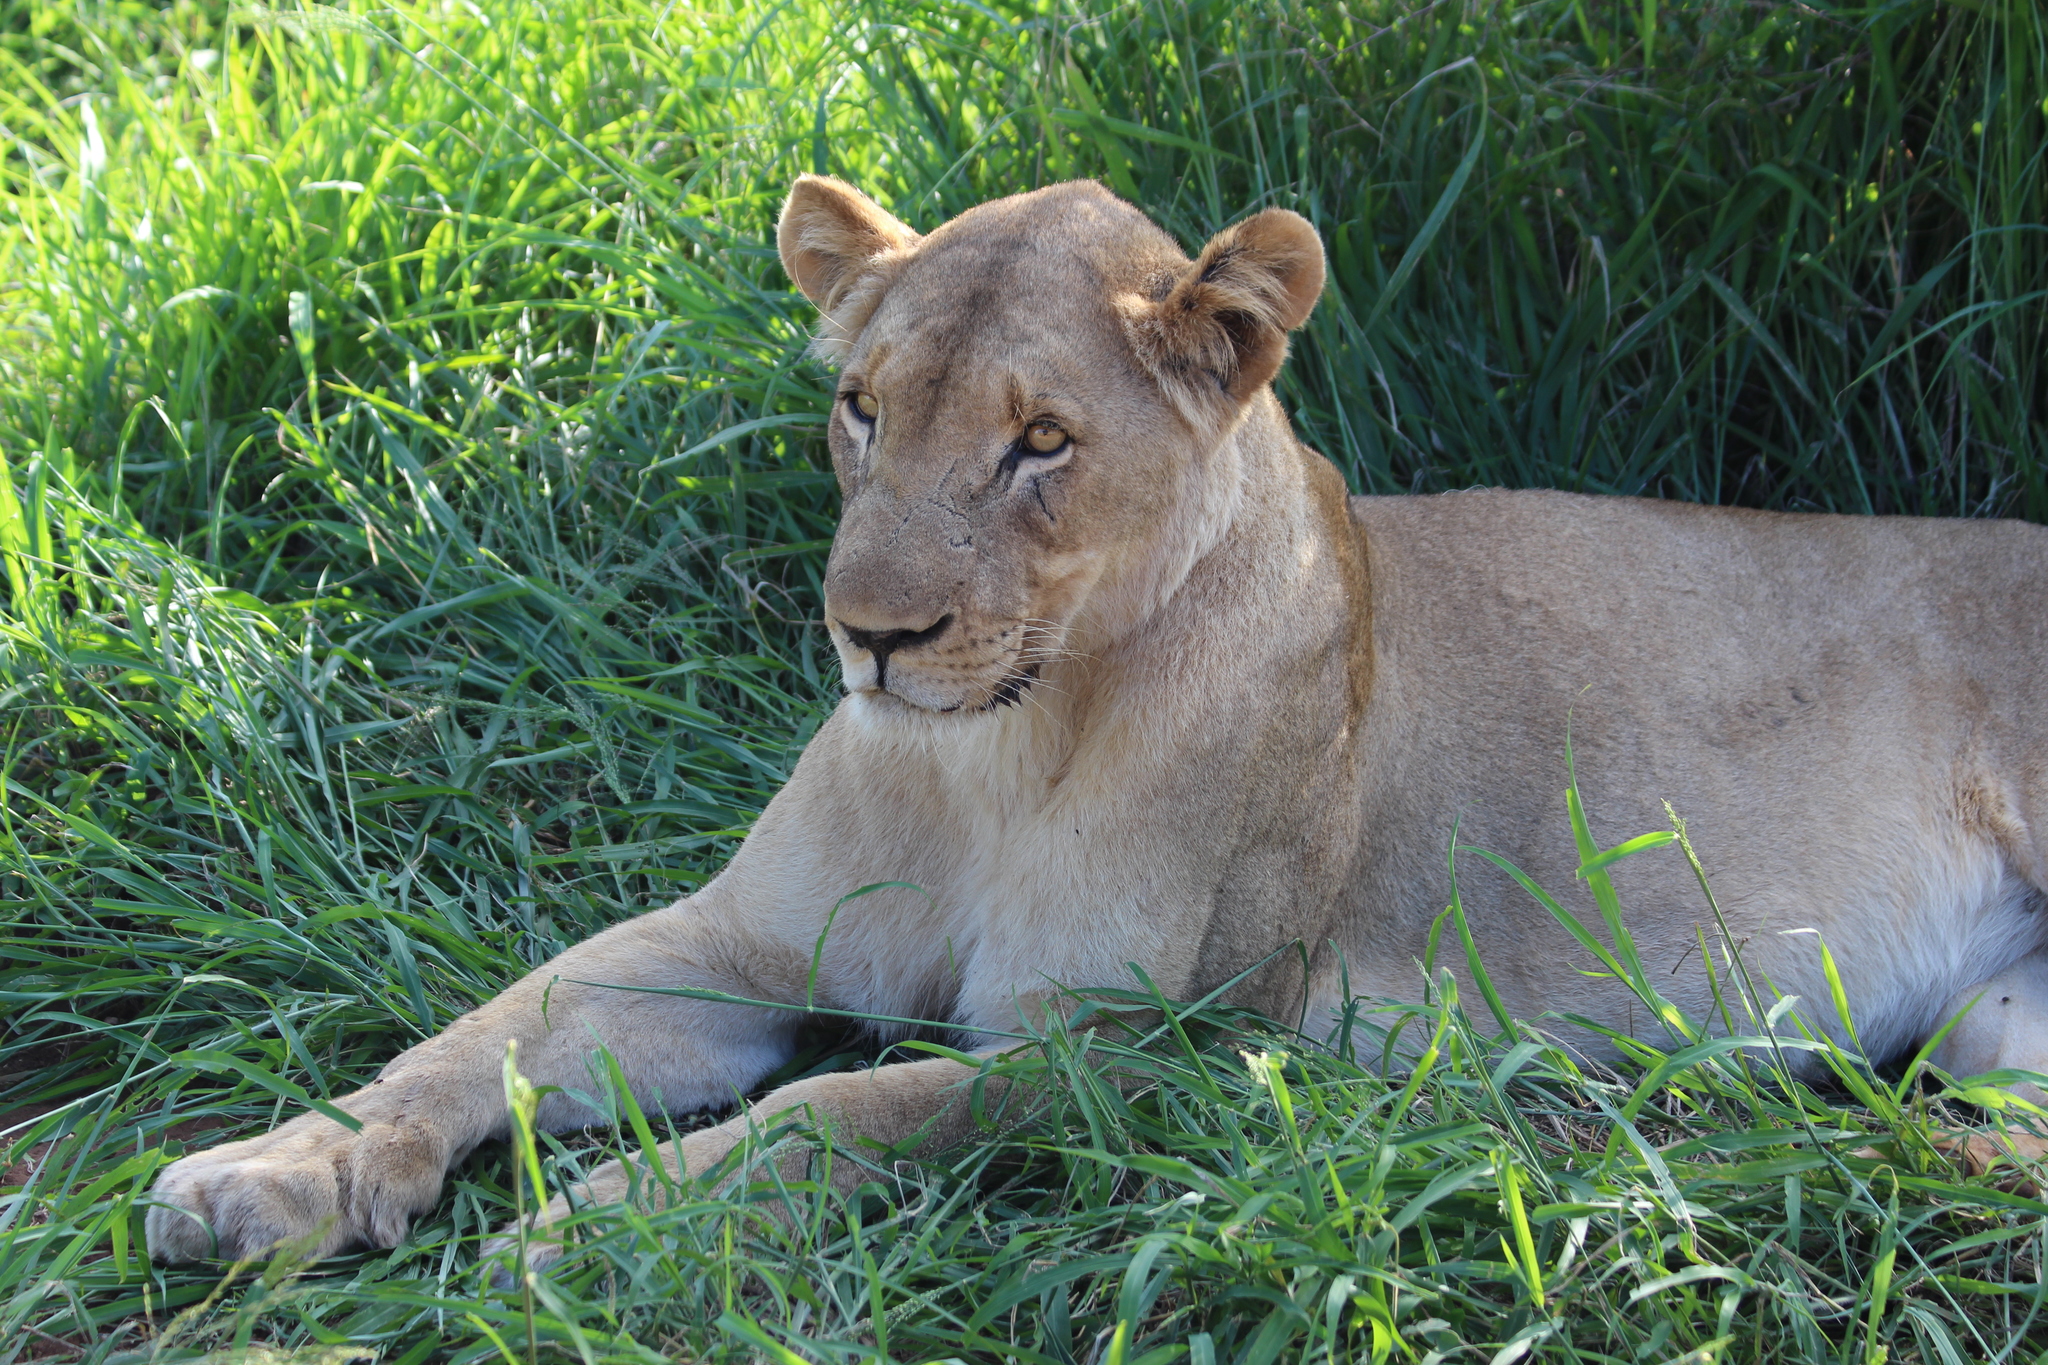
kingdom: Animalia
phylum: Chordata
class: Mammalia
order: Carnivora
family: Felidae
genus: Panthera
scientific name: Panthera leo
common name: Lion
